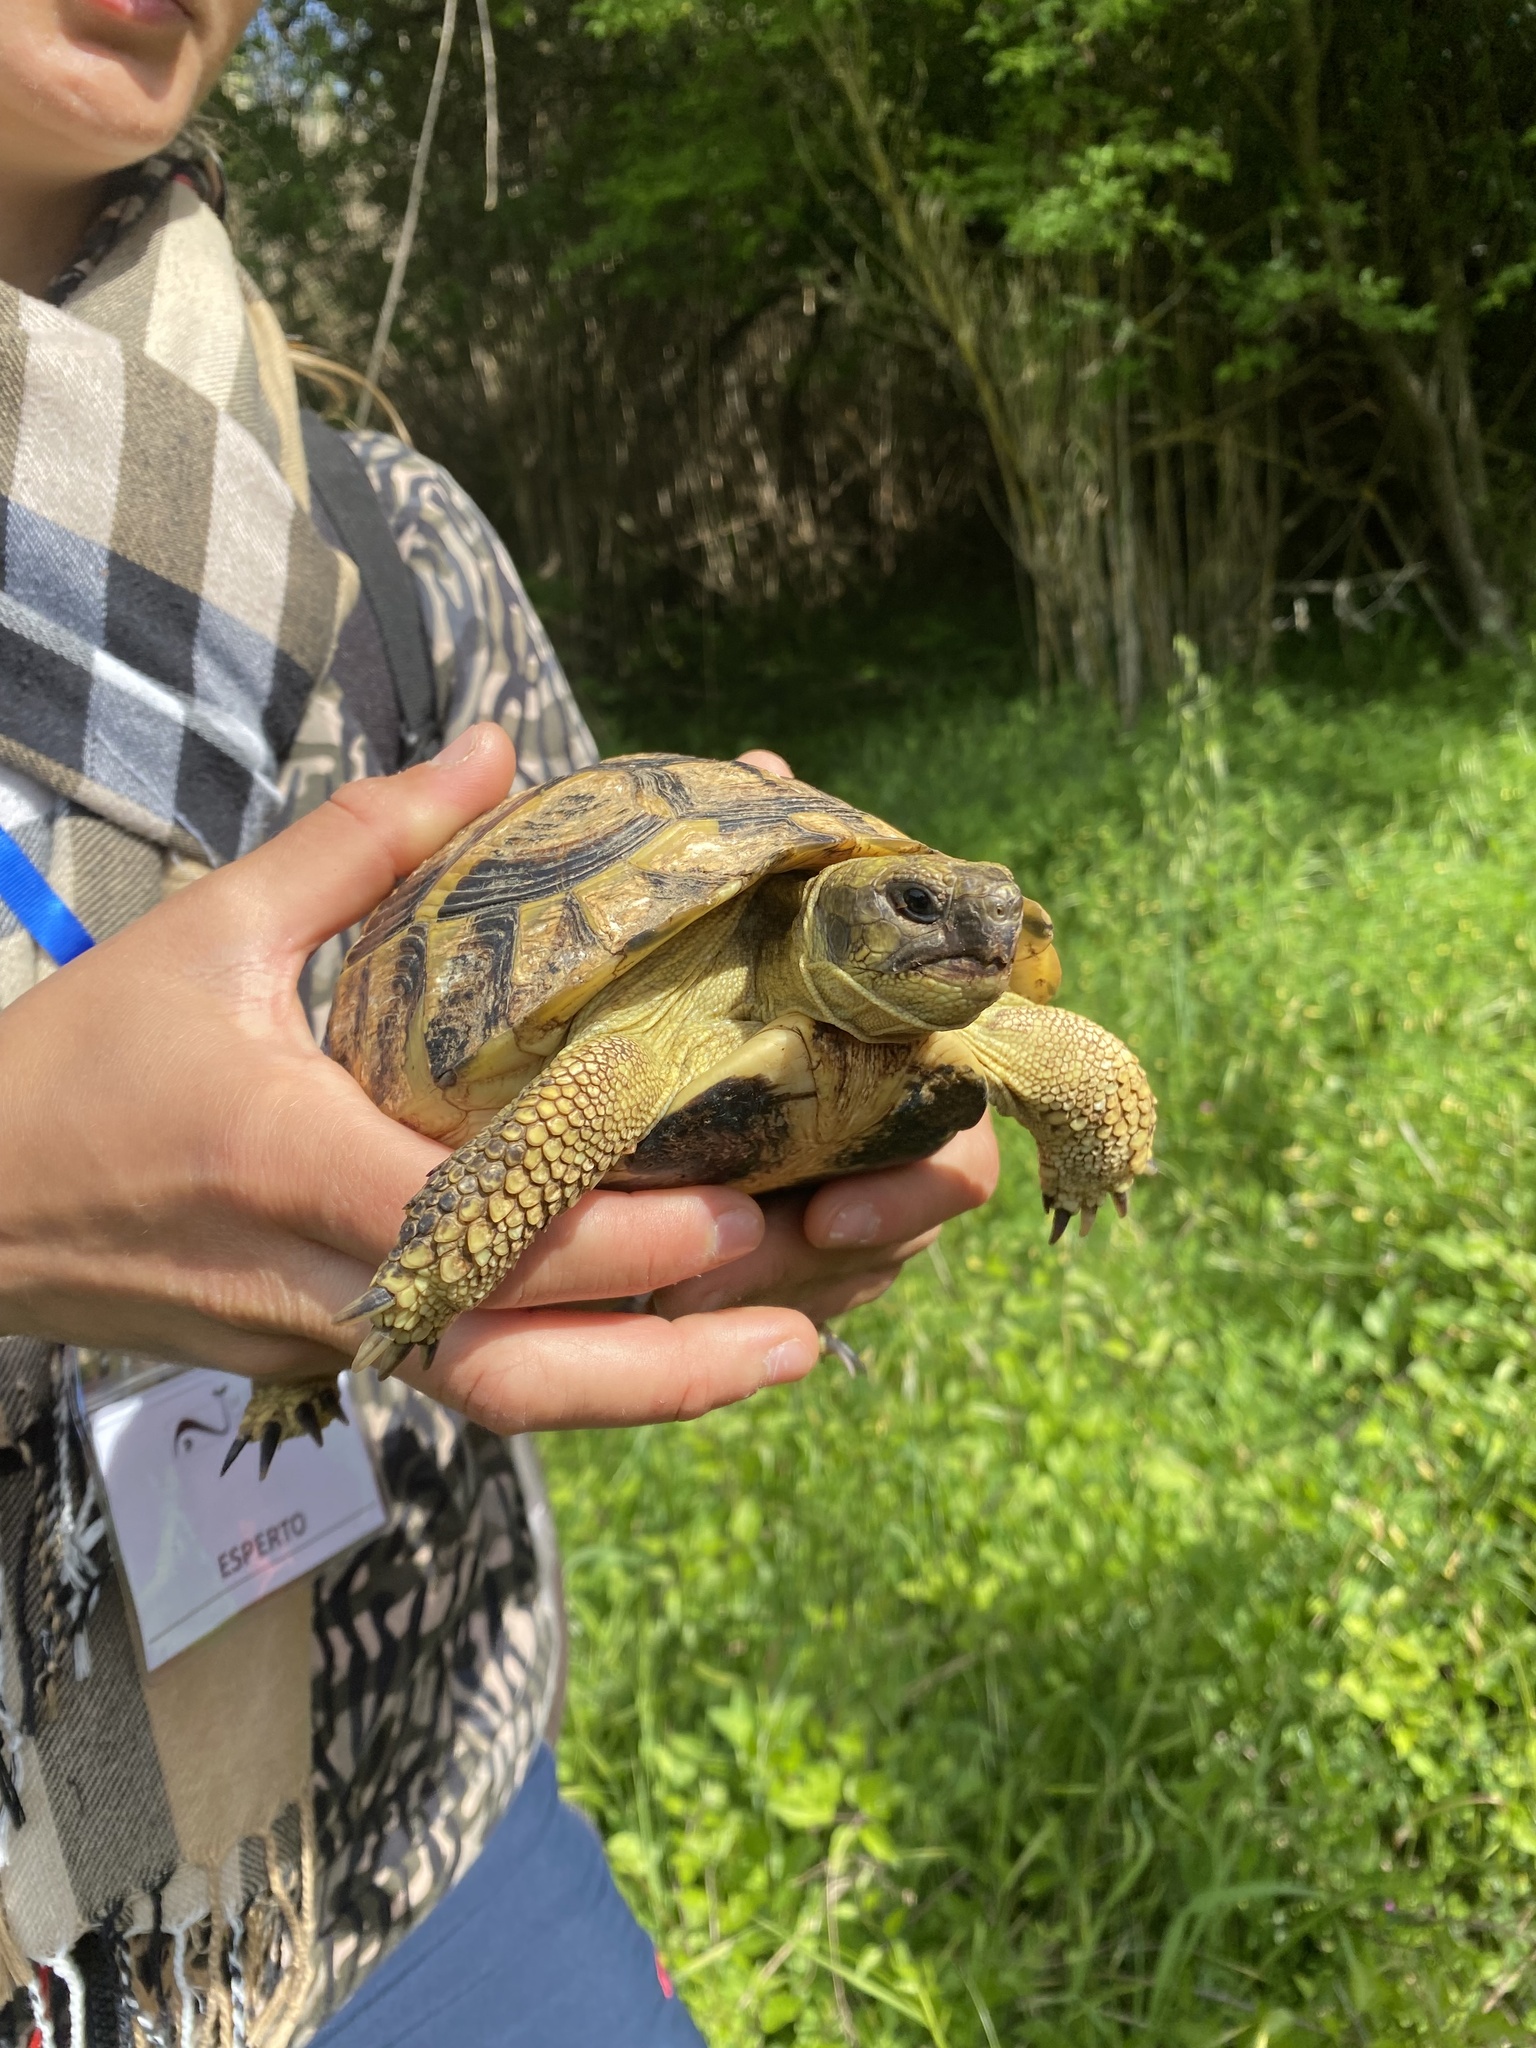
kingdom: Animalia
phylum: Chordata
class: Testudines
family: Testudinidae
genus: Testudo
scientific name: Testudo hermanni
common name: Hermann's tortoise
